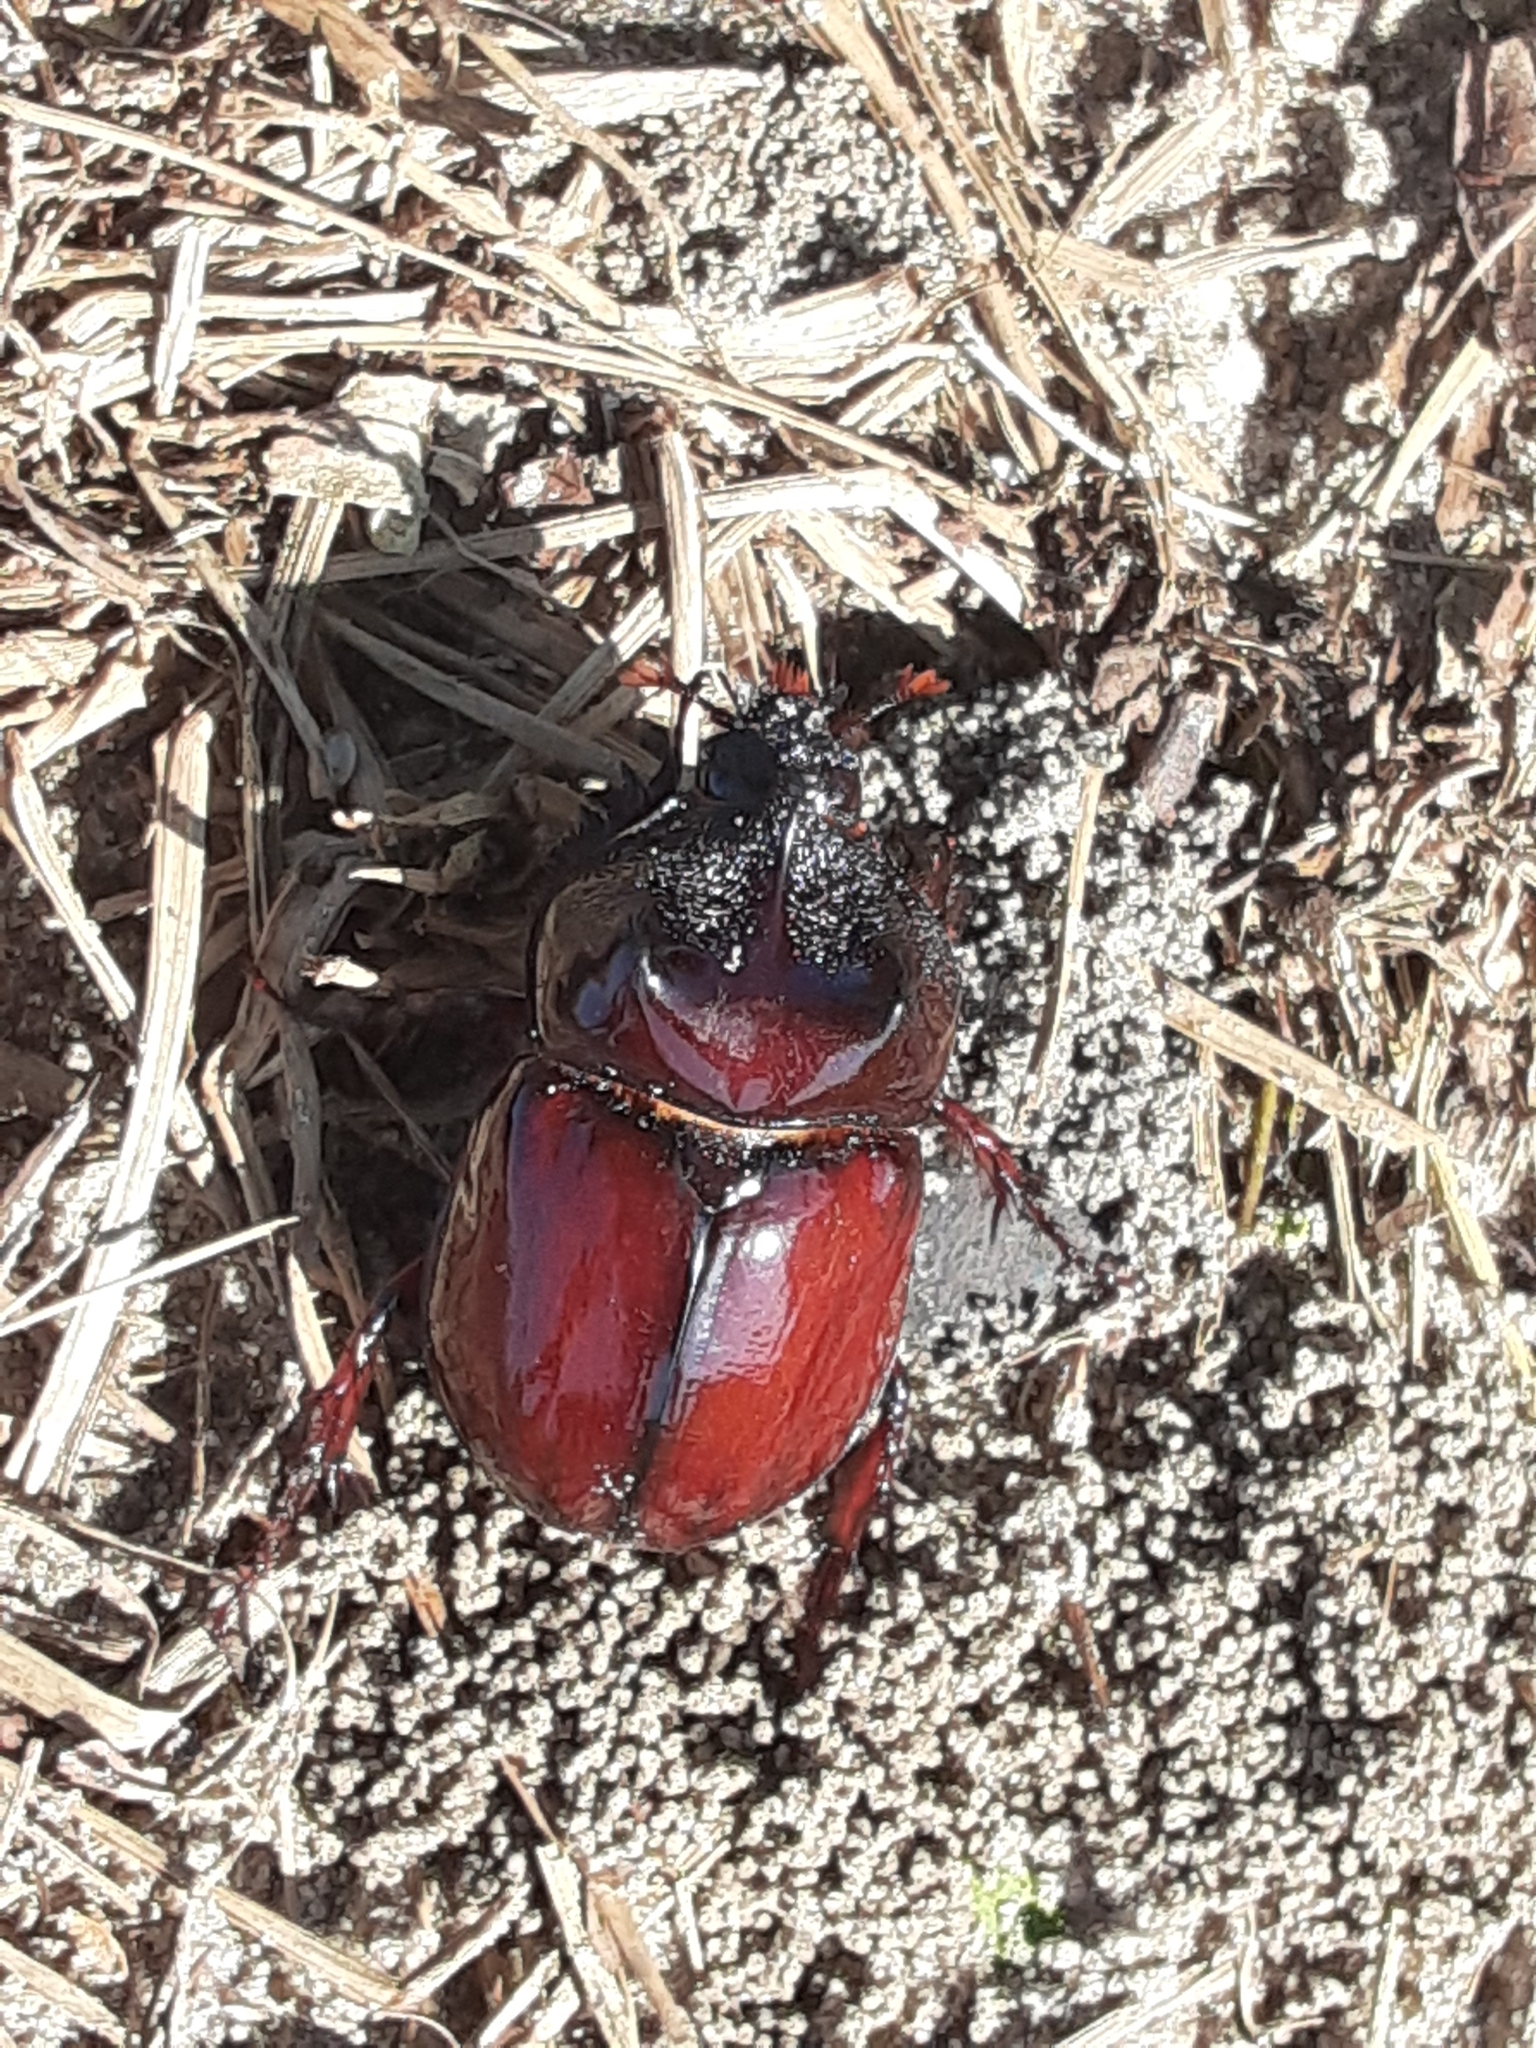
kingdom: Animalia
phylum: Arthropoda
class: Insecta
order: Coleoptera
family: Scarabaeidae
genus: Strategus
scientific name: Strategus antaeus
